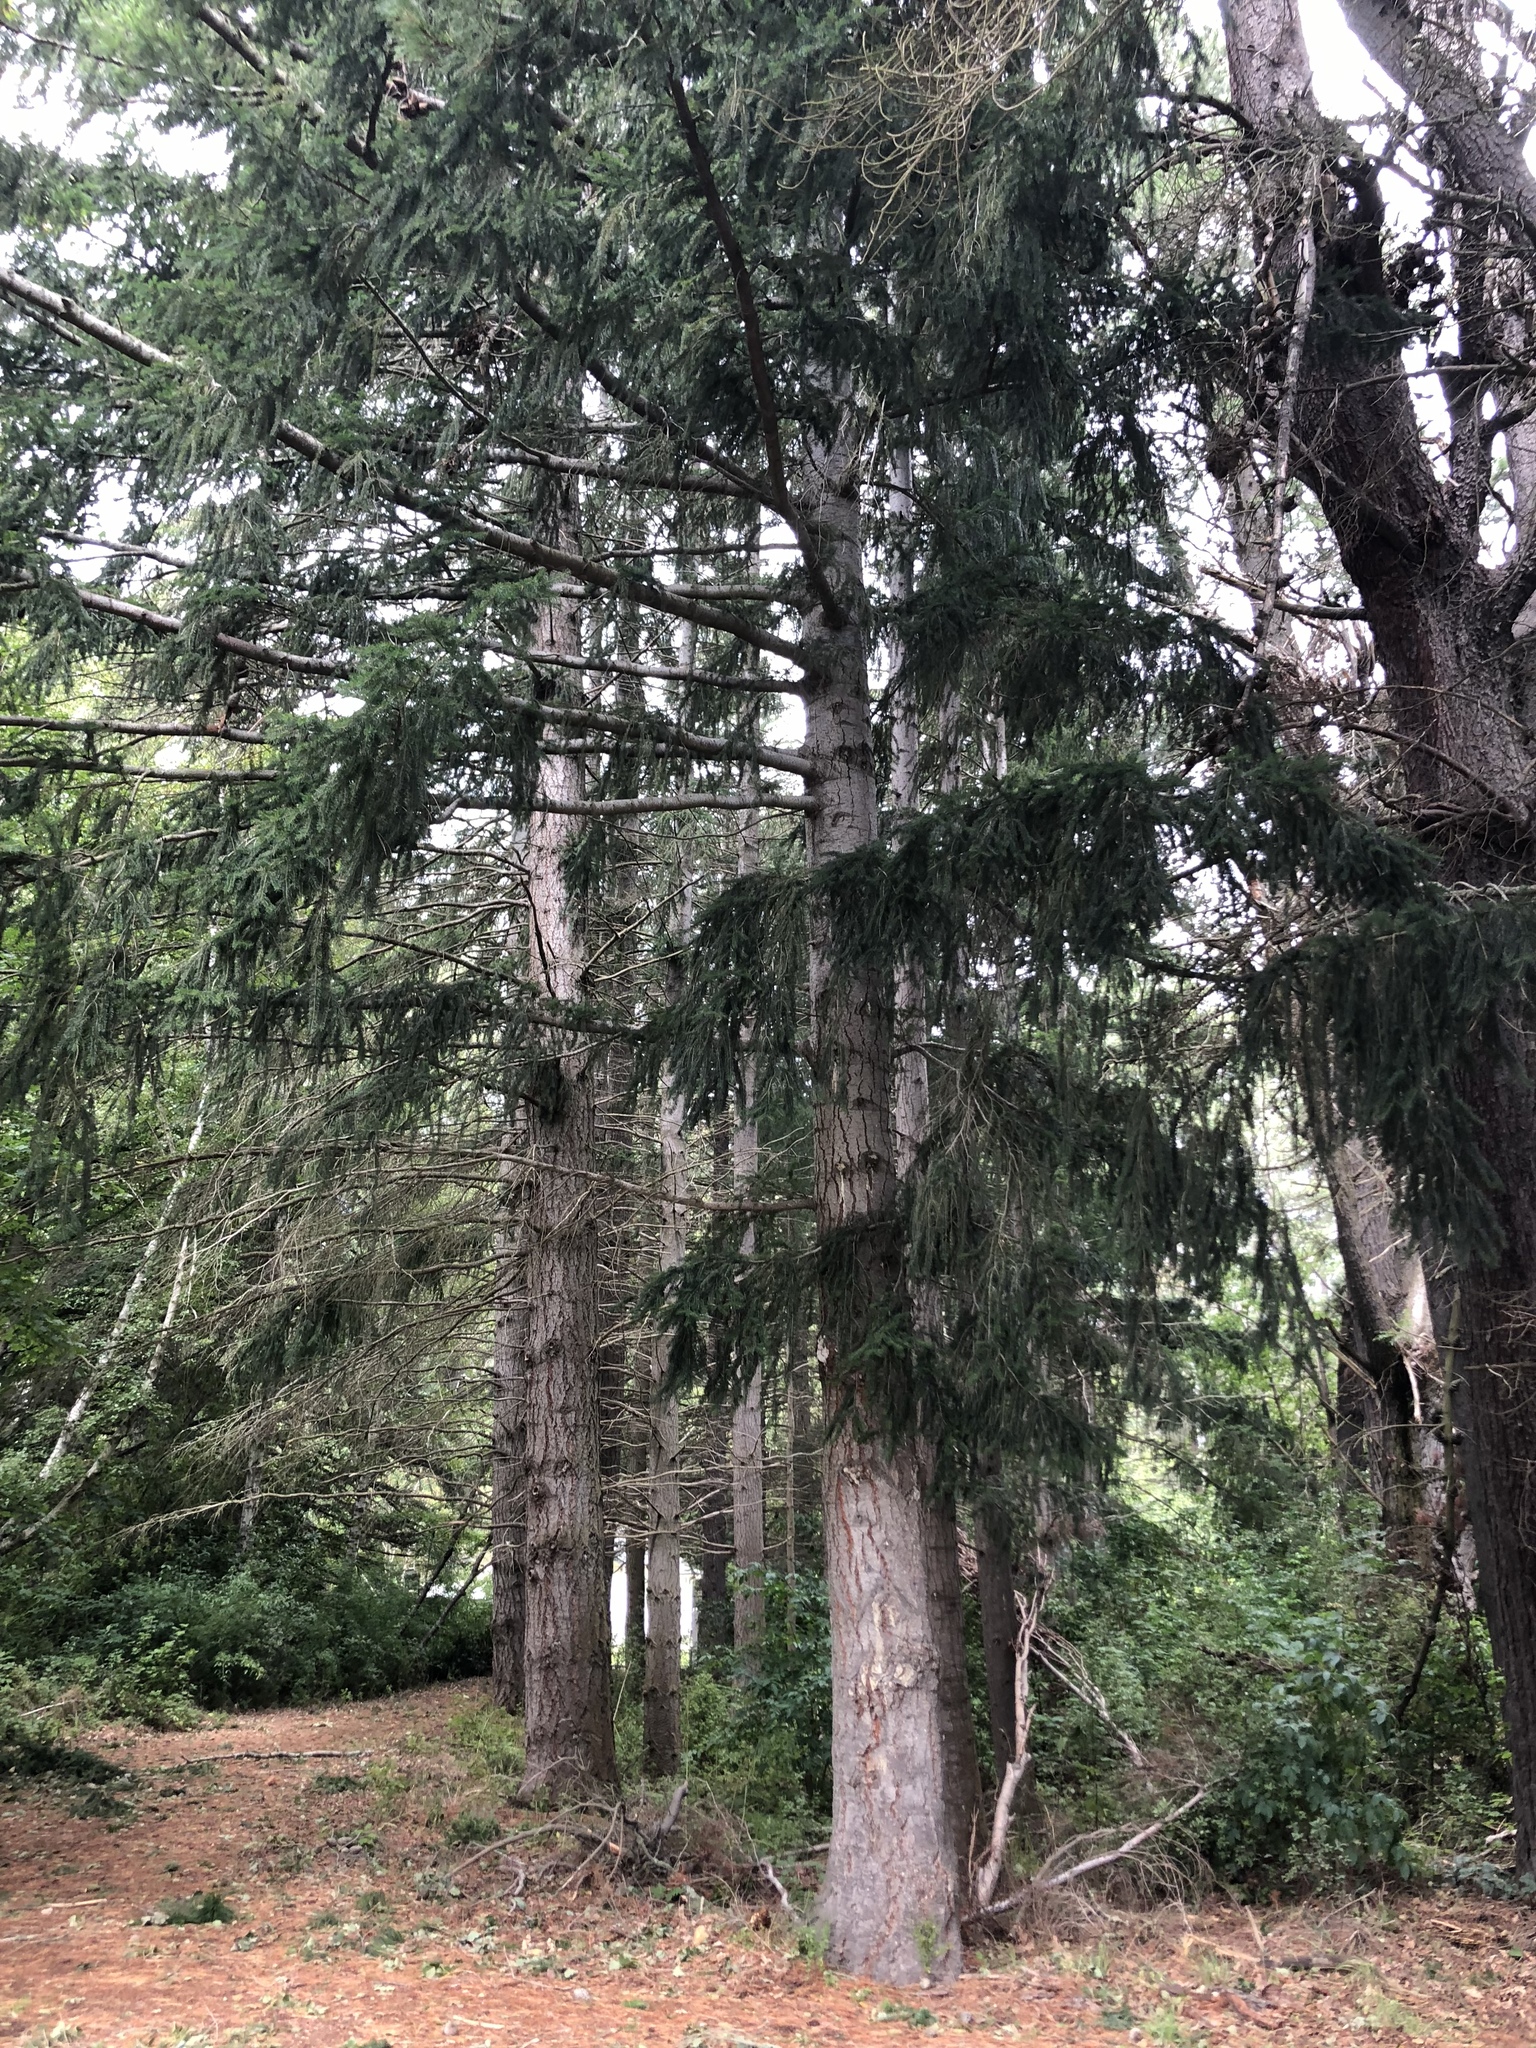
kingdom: Plantae
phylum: Tracheophyta
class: Pinopsida
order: Pinales
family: Pinaceae
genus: Pseudotsuga
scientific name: Pseudotsuga menziesii
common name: Douglas fir
